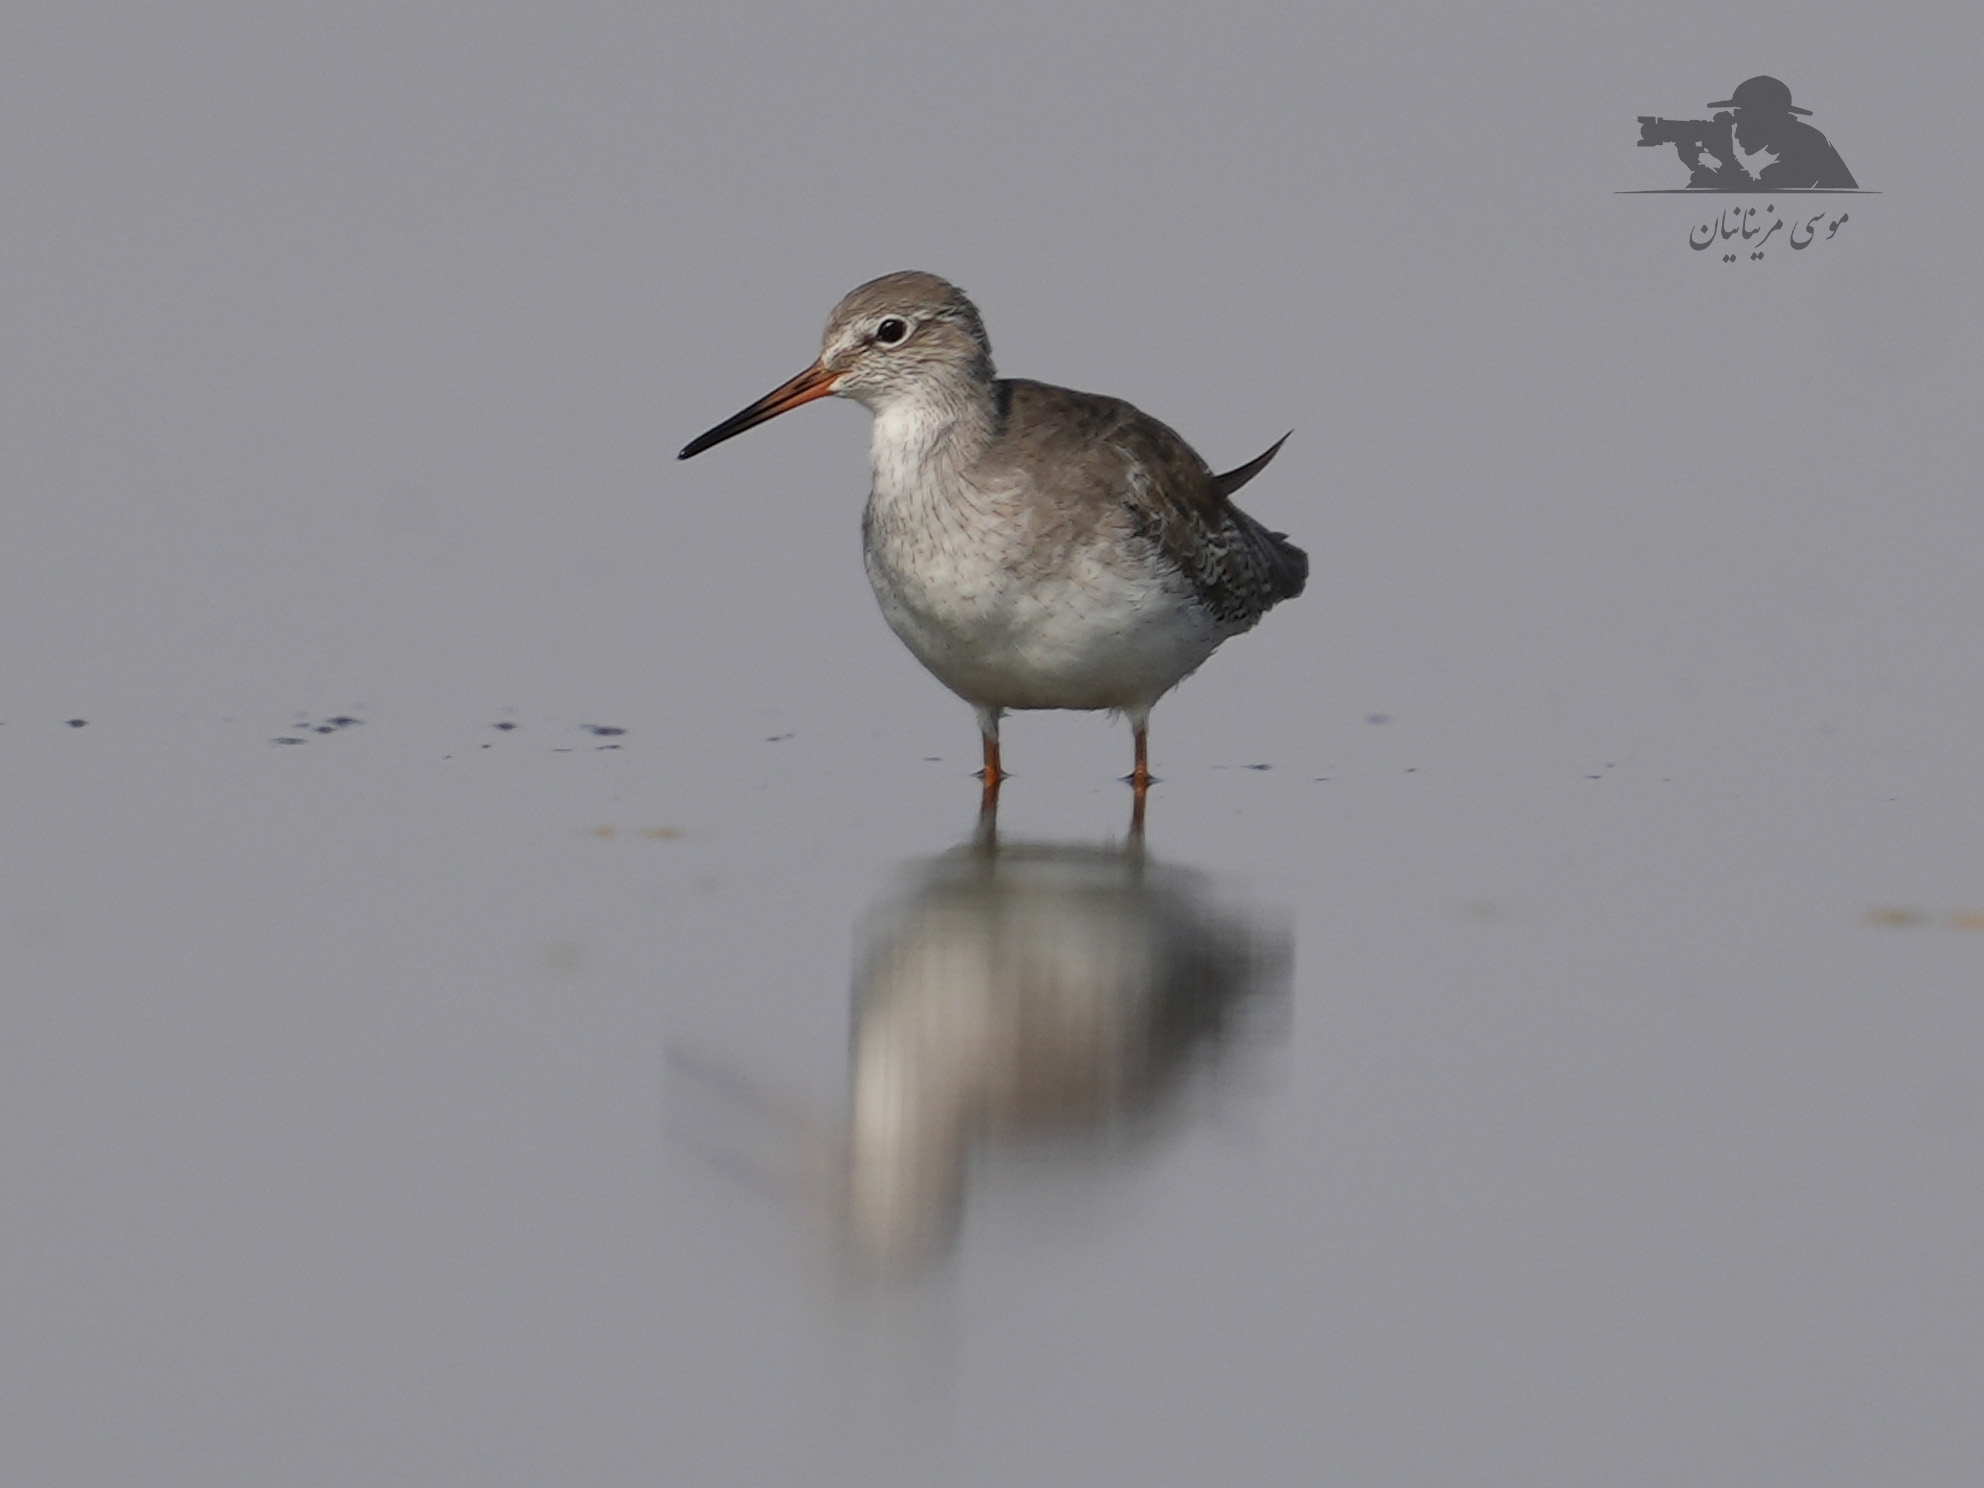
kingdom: Animalia
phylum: Chordata
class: Aves
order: Charadriiformes
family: Scolopacidae
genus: Tringa
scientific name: Tringa totanus
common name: Common redshank
